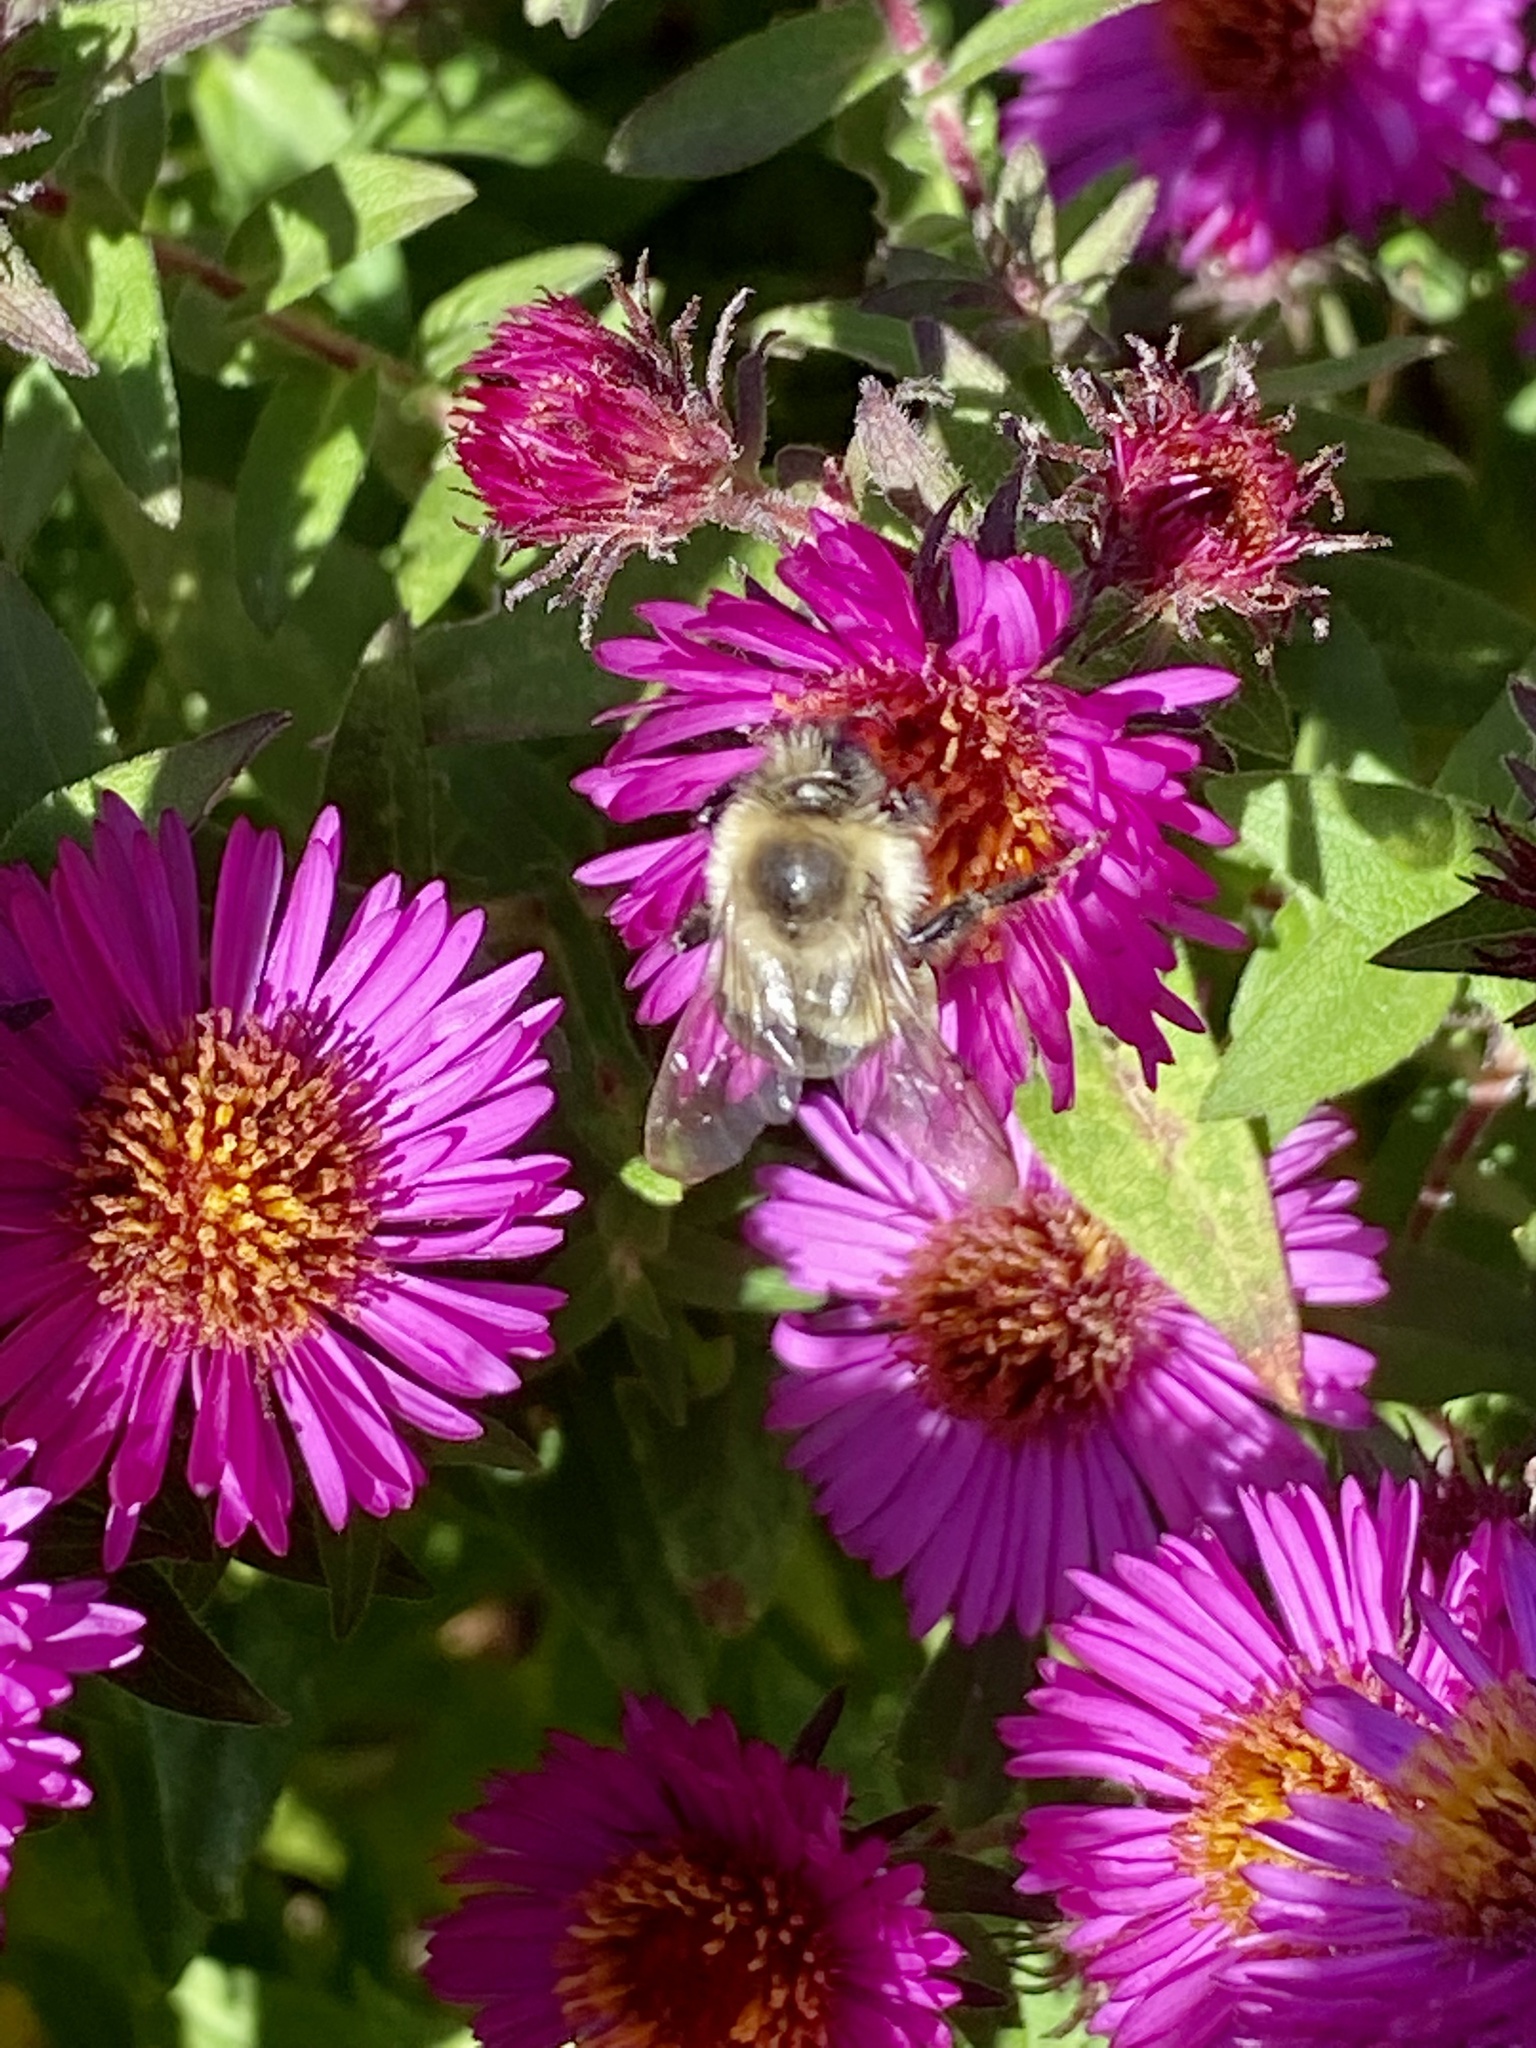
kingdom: Animalia
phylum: Arthropoda
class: Insecta
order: Hymenoptera
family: Apidae
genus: Bombus
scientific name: Bombus impatiens
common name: Common eastern bumble bee
